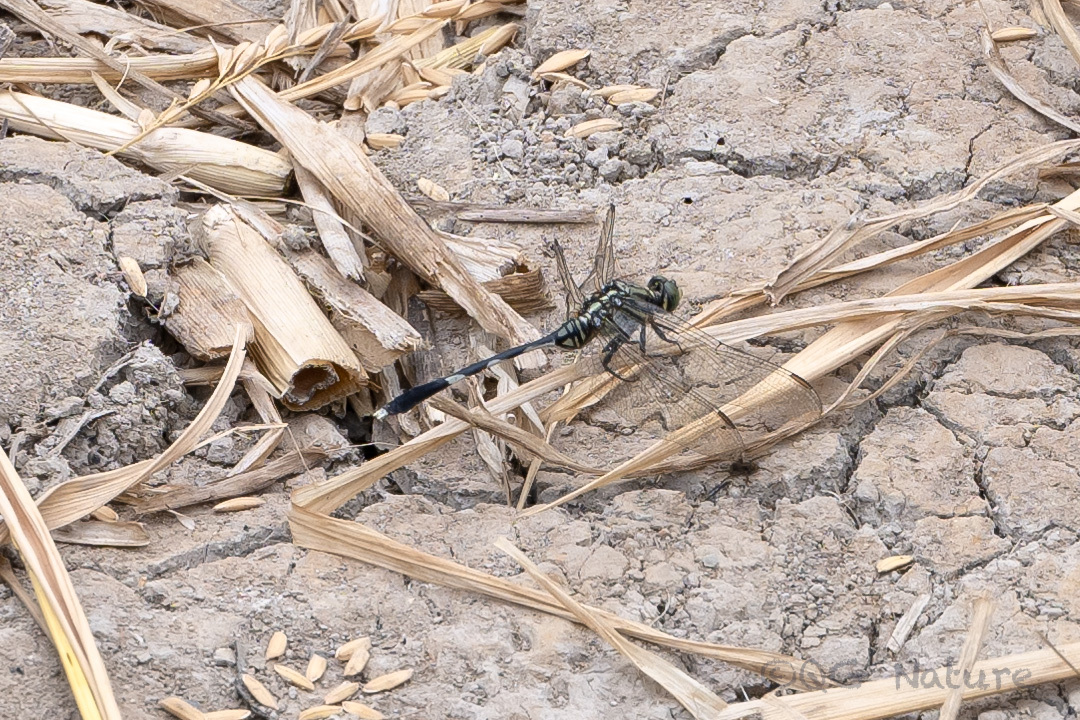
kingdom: Animalia
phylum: Arthropoda
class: Insecta
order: Odonata
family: Libellulidae
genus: Orthetrum
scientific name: Orthetrum sabina
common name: Slender skimmer
